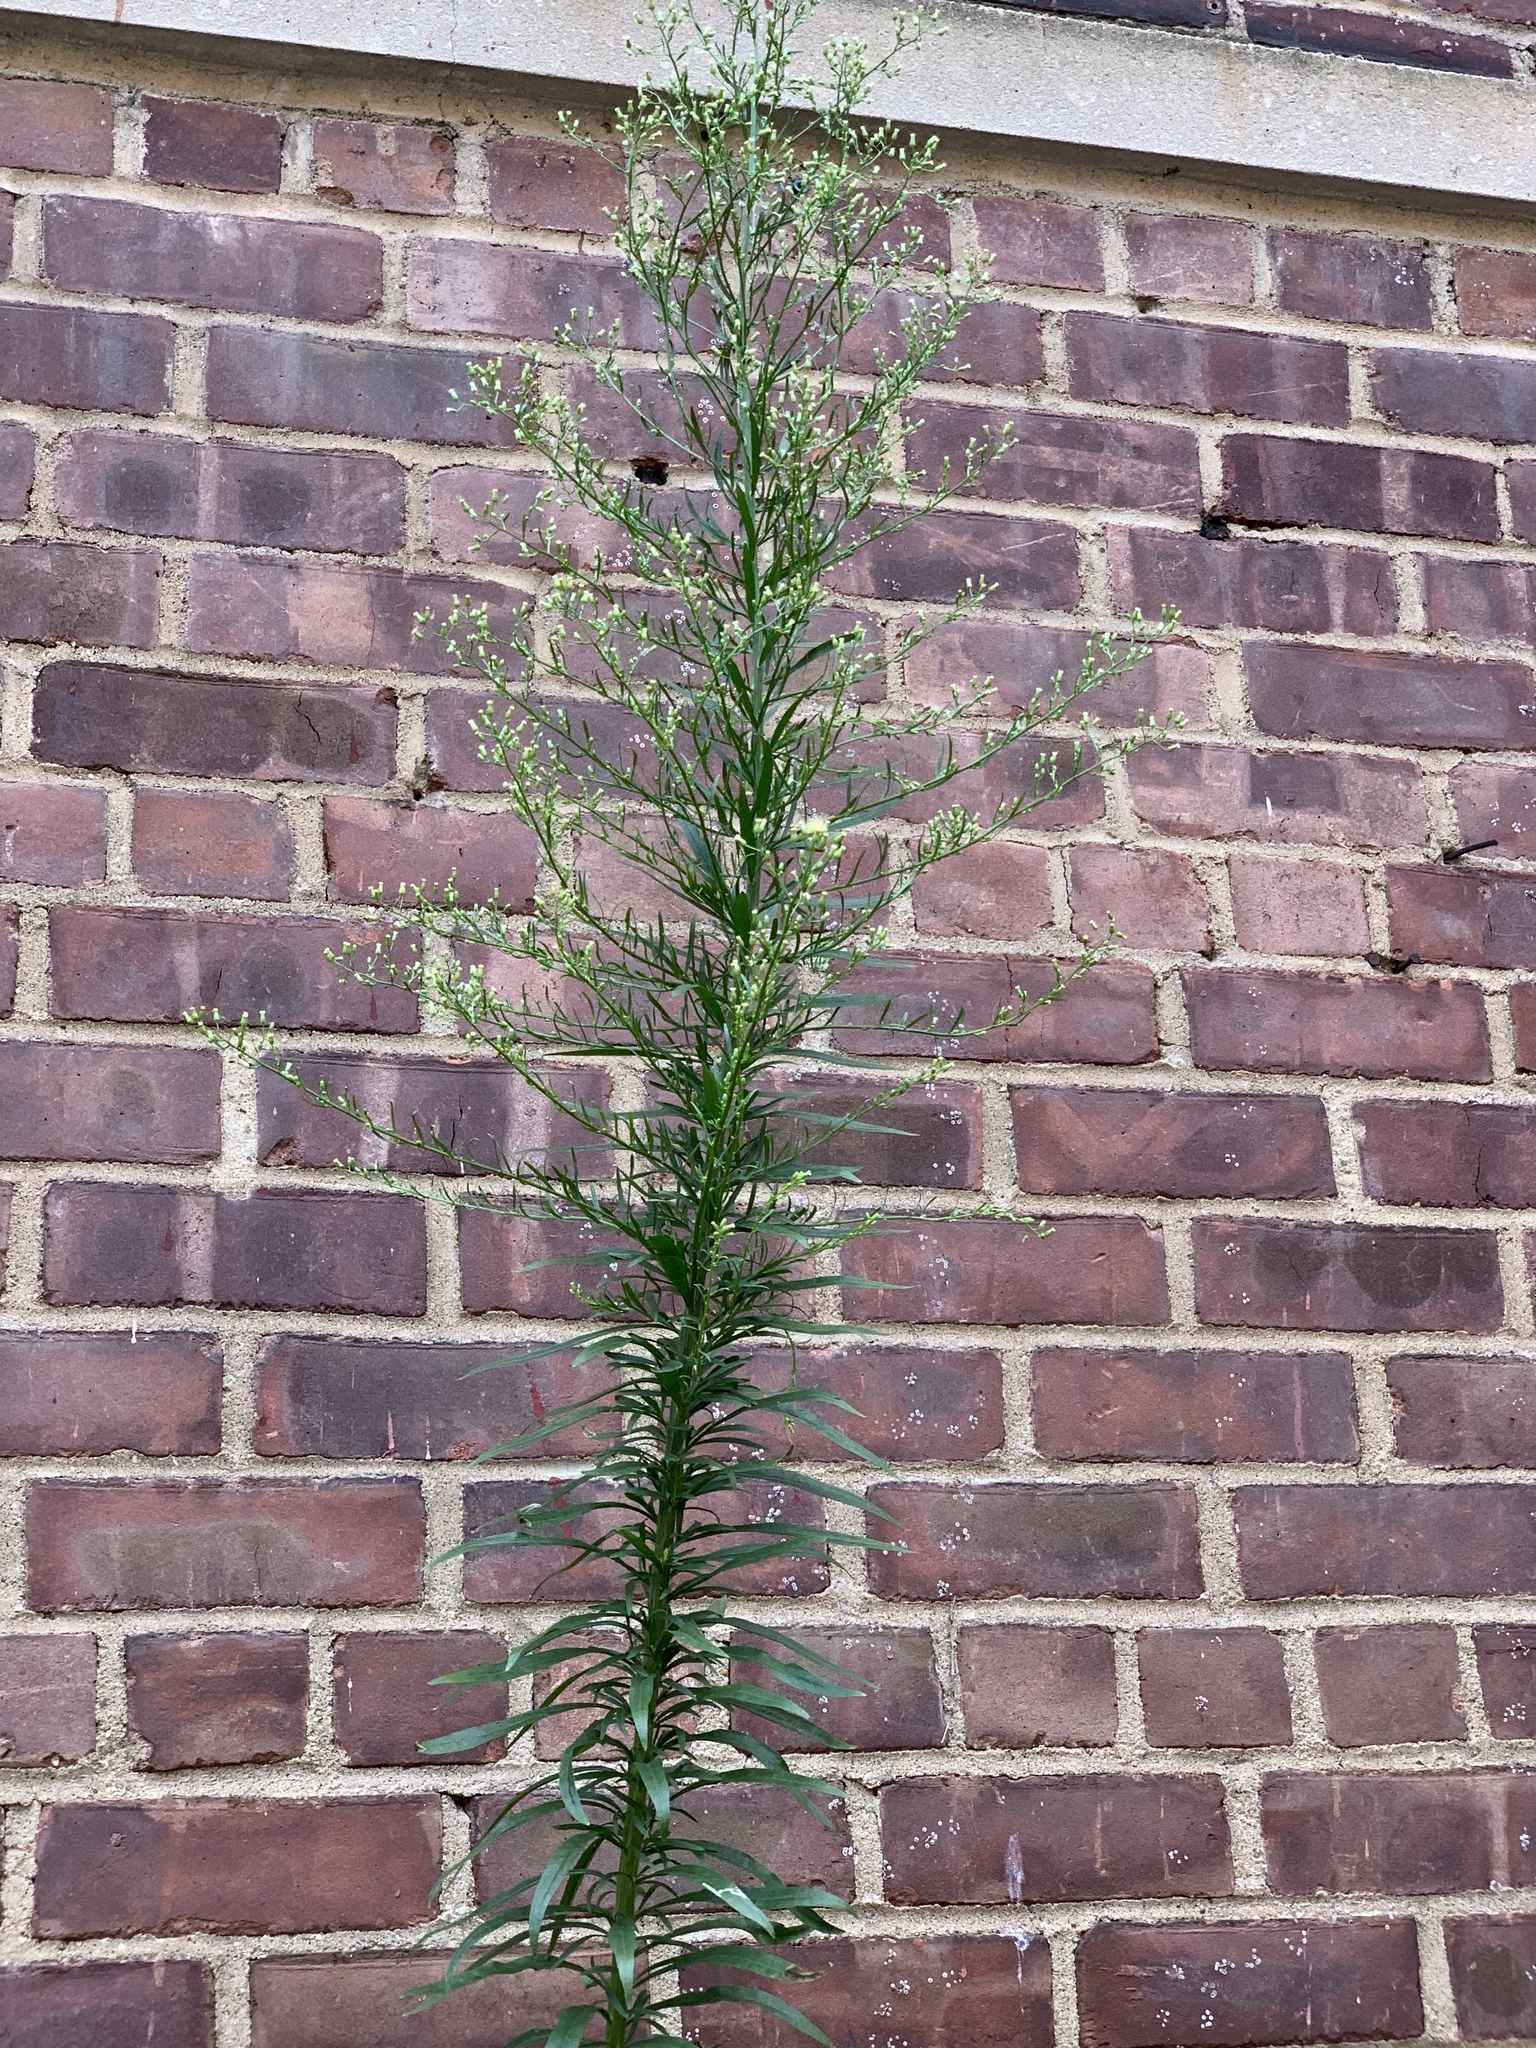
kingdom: Plantae
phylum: Tracheophyta
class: Magnoliopsida
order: Asterales
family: Asteraceae
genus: Erigeron
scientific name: Erigeron canadensis
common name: Canadian fleabane
